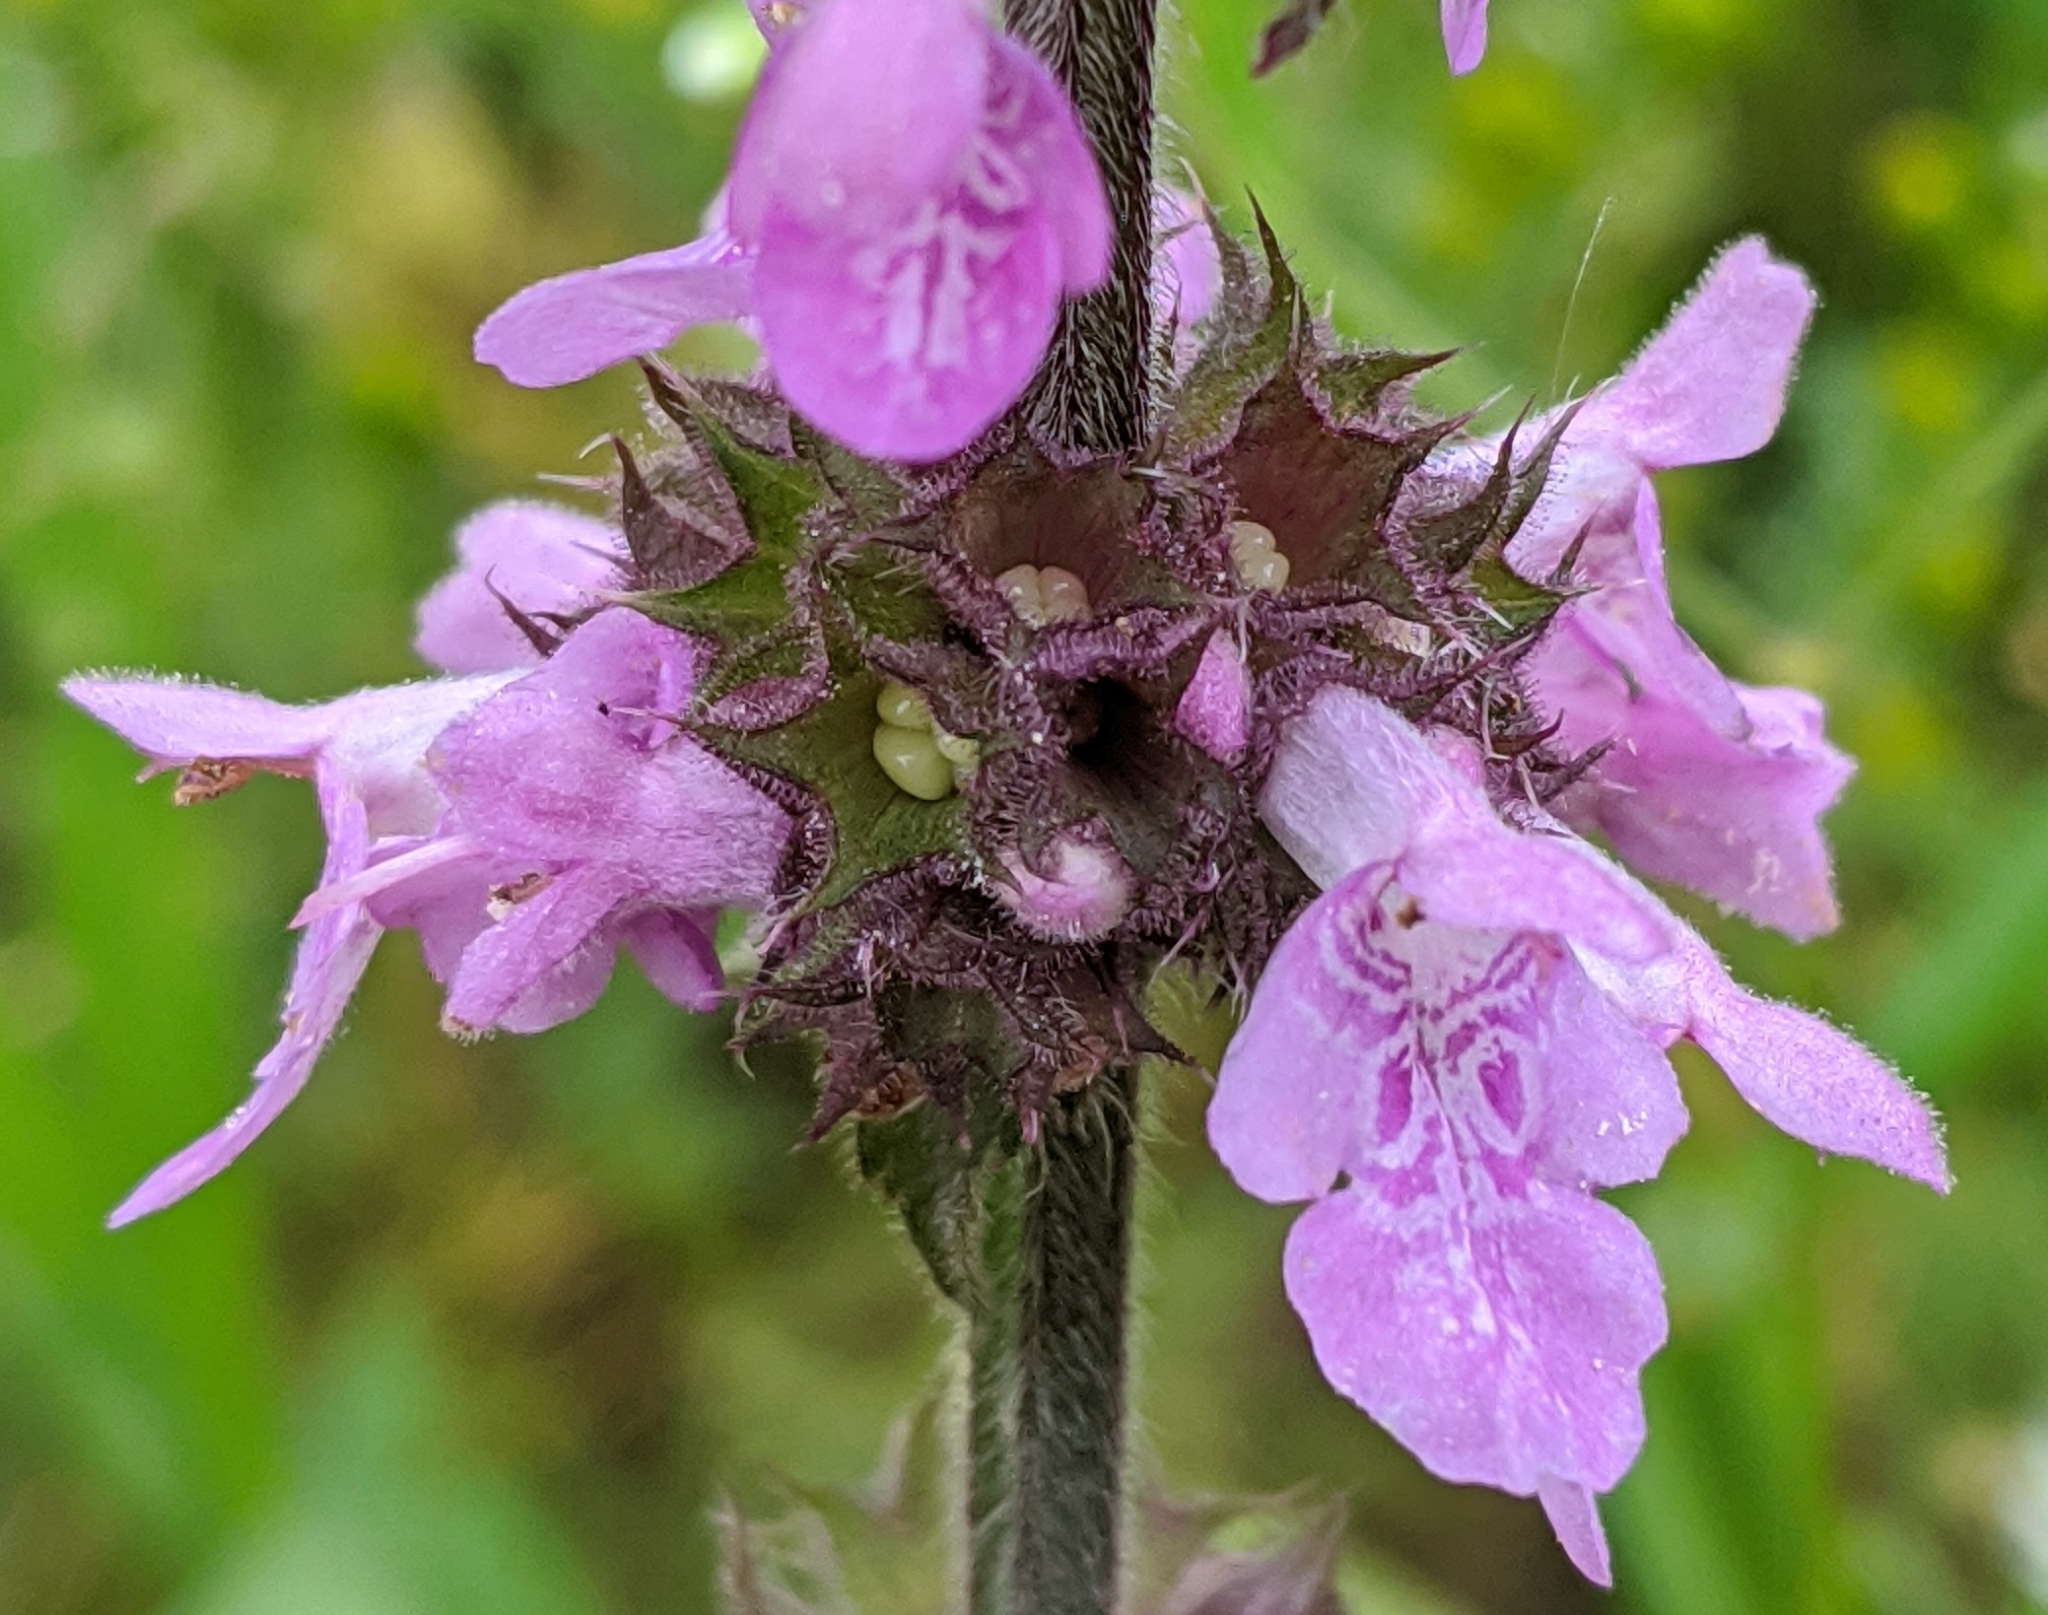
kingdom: Plantae
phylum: Tracheophyta
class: Magnoliopsida
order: Lamiales
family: Lamiaceae
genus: Stachys
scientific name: Stachys palustris
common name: Marsh woundwort
